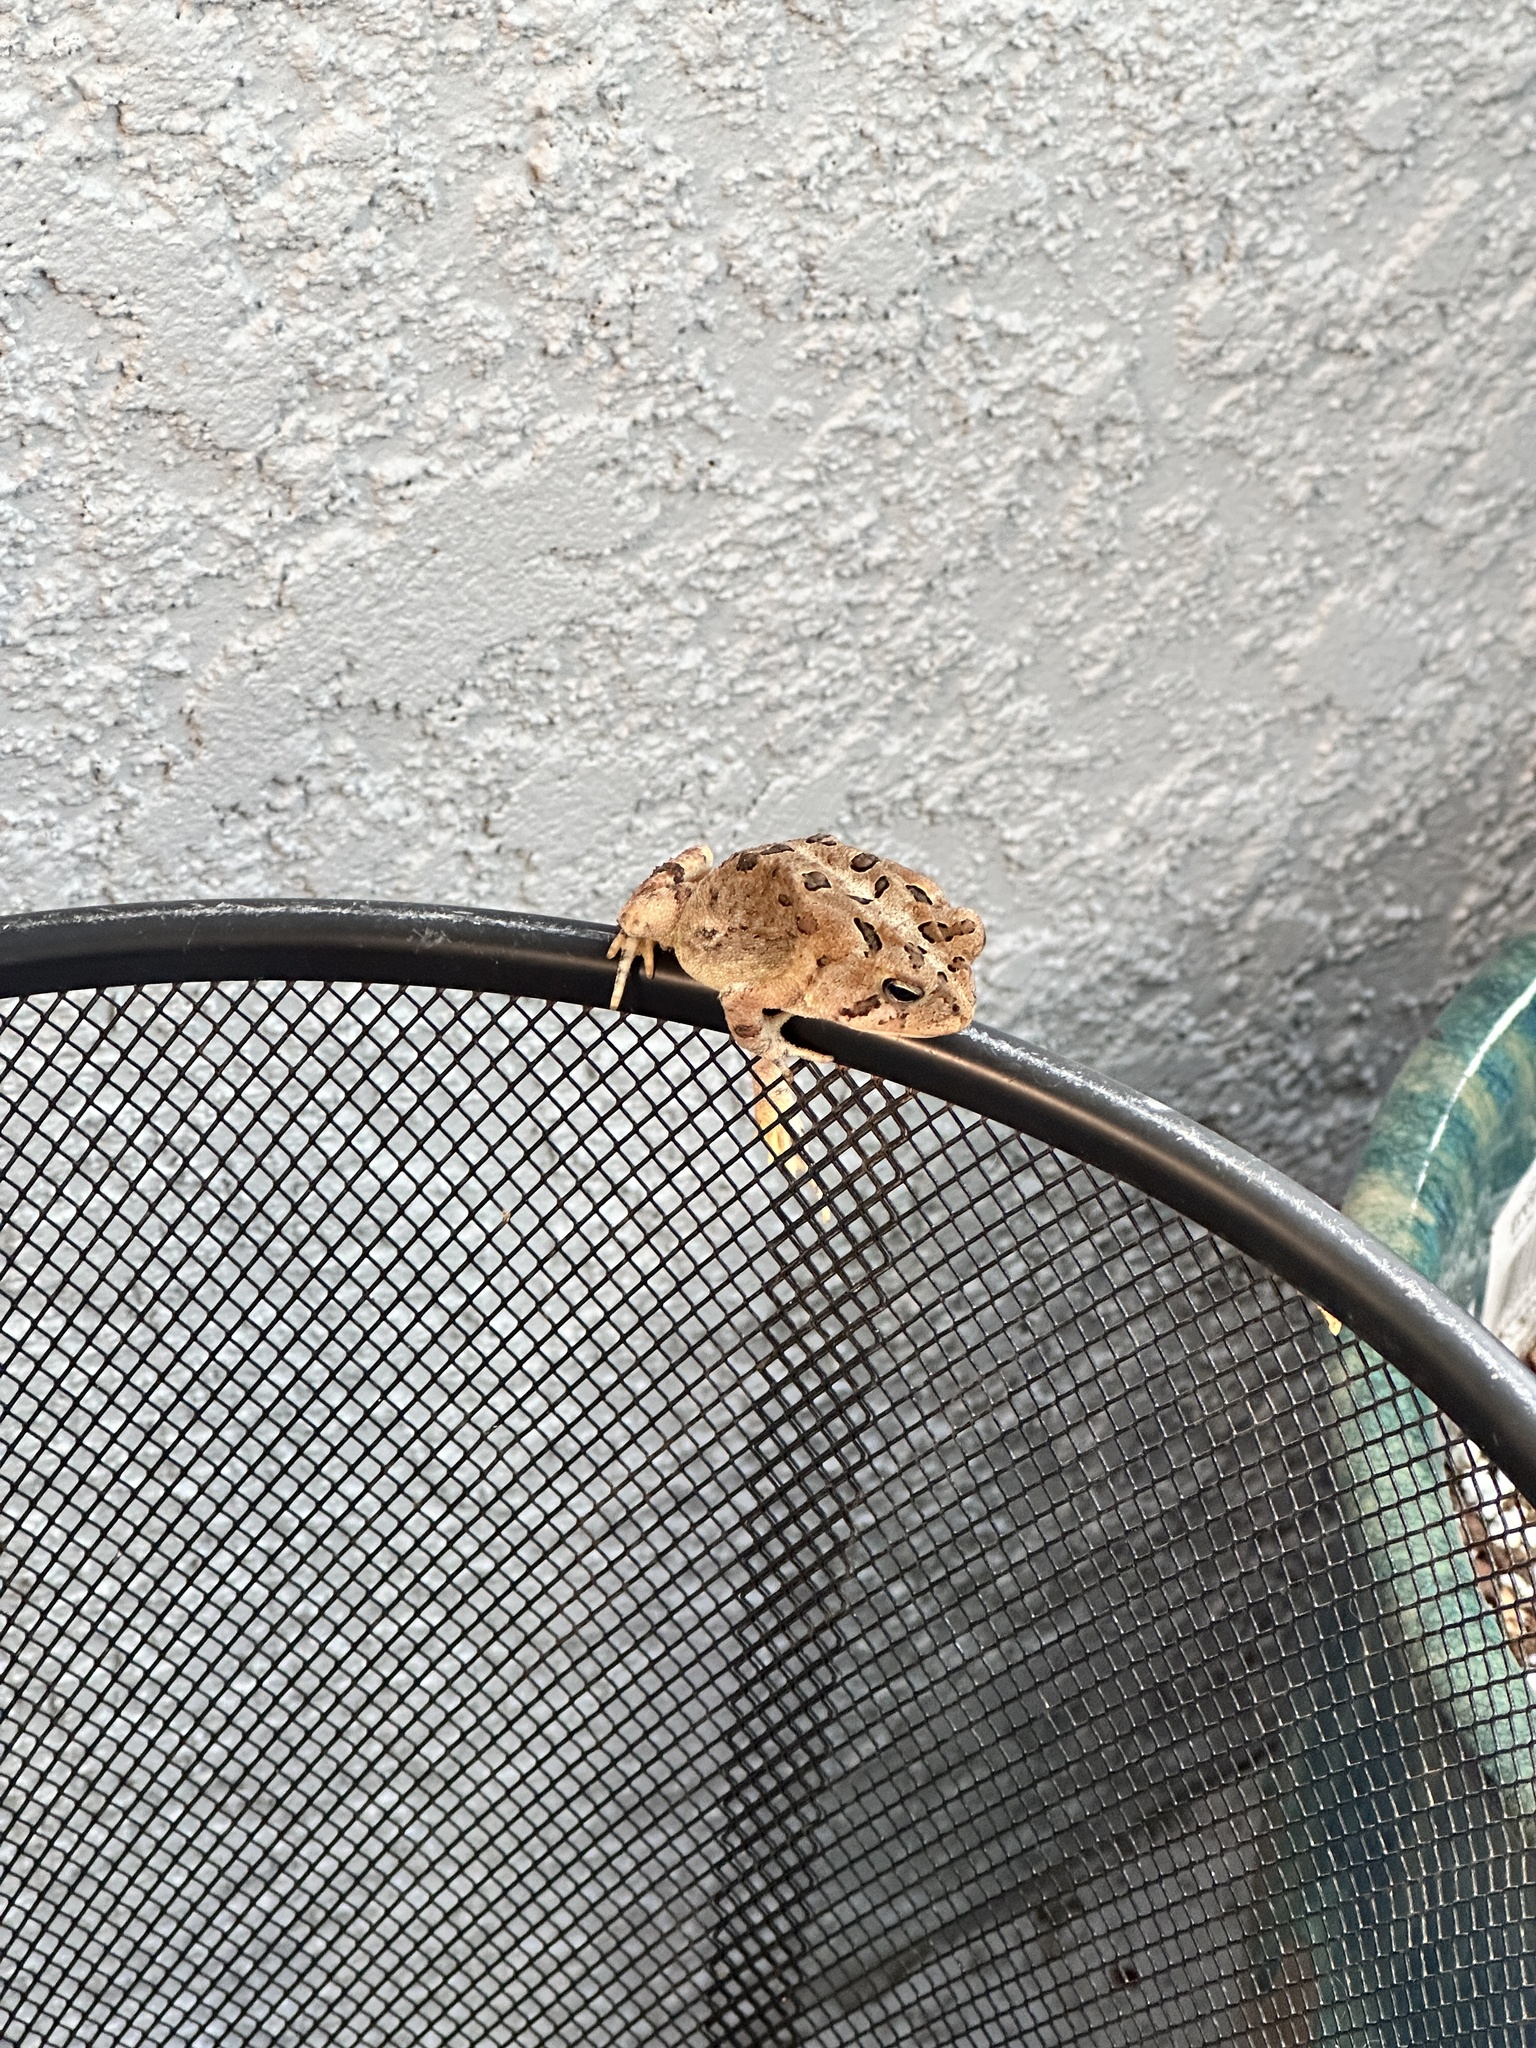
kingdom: Animalia
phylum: Chordata
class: Amphibia
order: Anura
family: Bufonidae
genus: Anaxyrus
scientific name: Anaxyrus terrestris
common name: Southern toad
